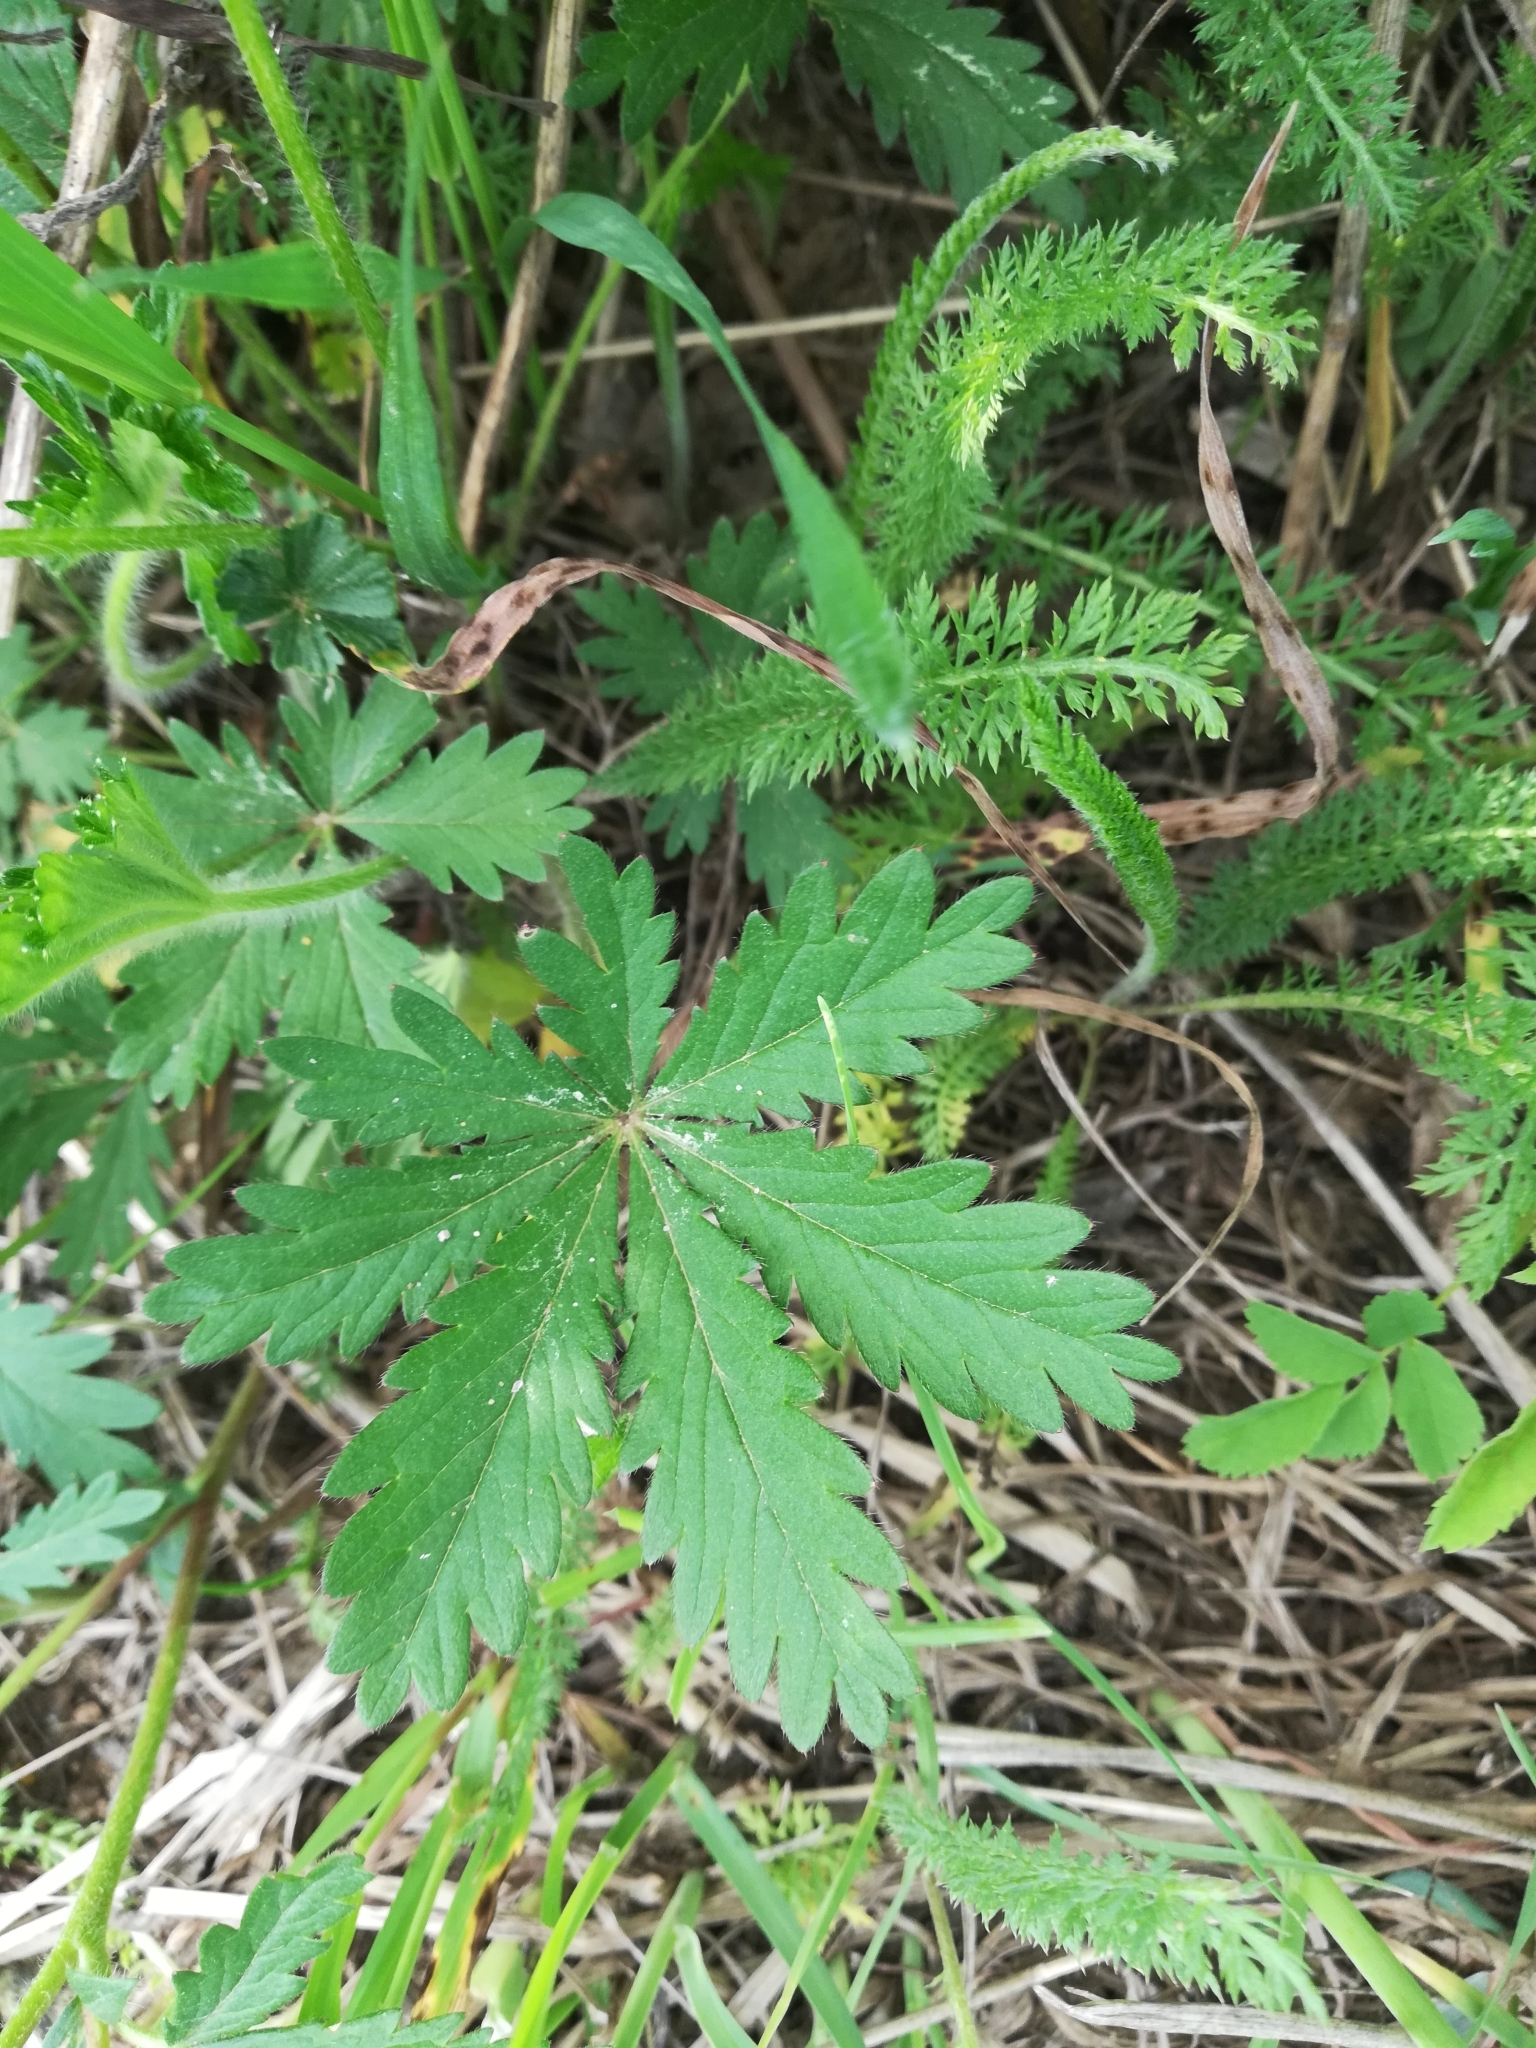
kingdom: Plantae
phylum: Tracheophyta
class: Magnoliopsida
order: Rosales
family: Rosaceae
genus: Potentilla
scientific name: Potentilla thuringiaca
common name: European cinquefoil
